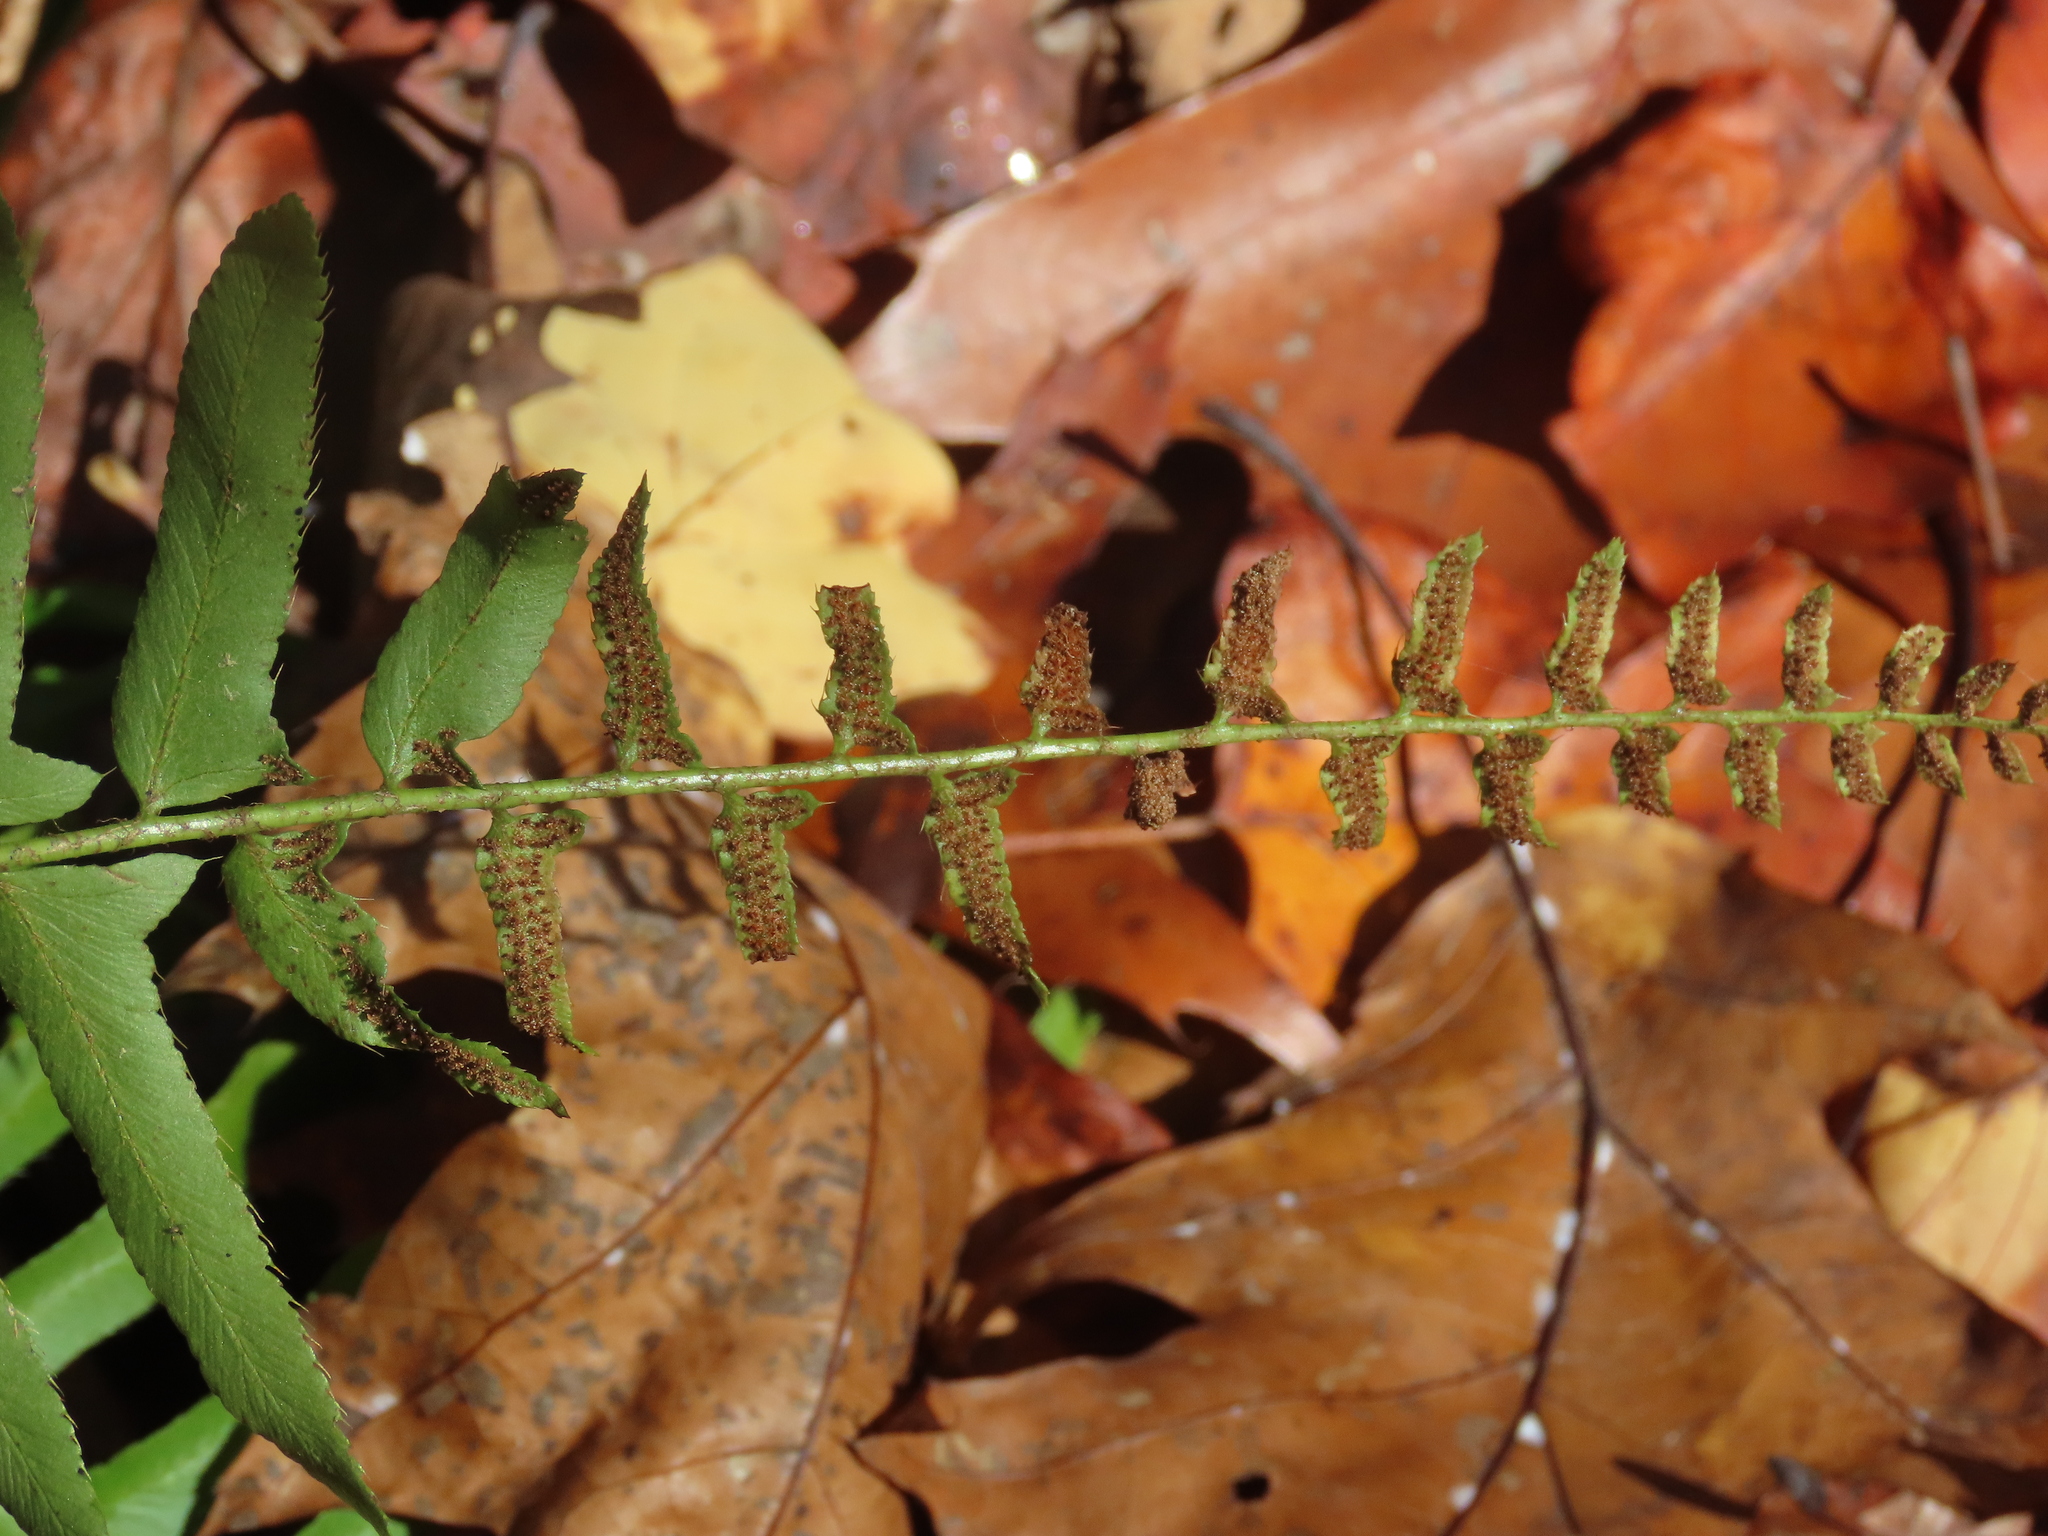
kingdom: Plantae
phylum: Tracheophyta
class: Polypodiopsida
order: Polypodiales
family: Dryopteridaceae
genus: Polystichum
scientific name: Polystichum acrostichoides
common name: Christmas fern
